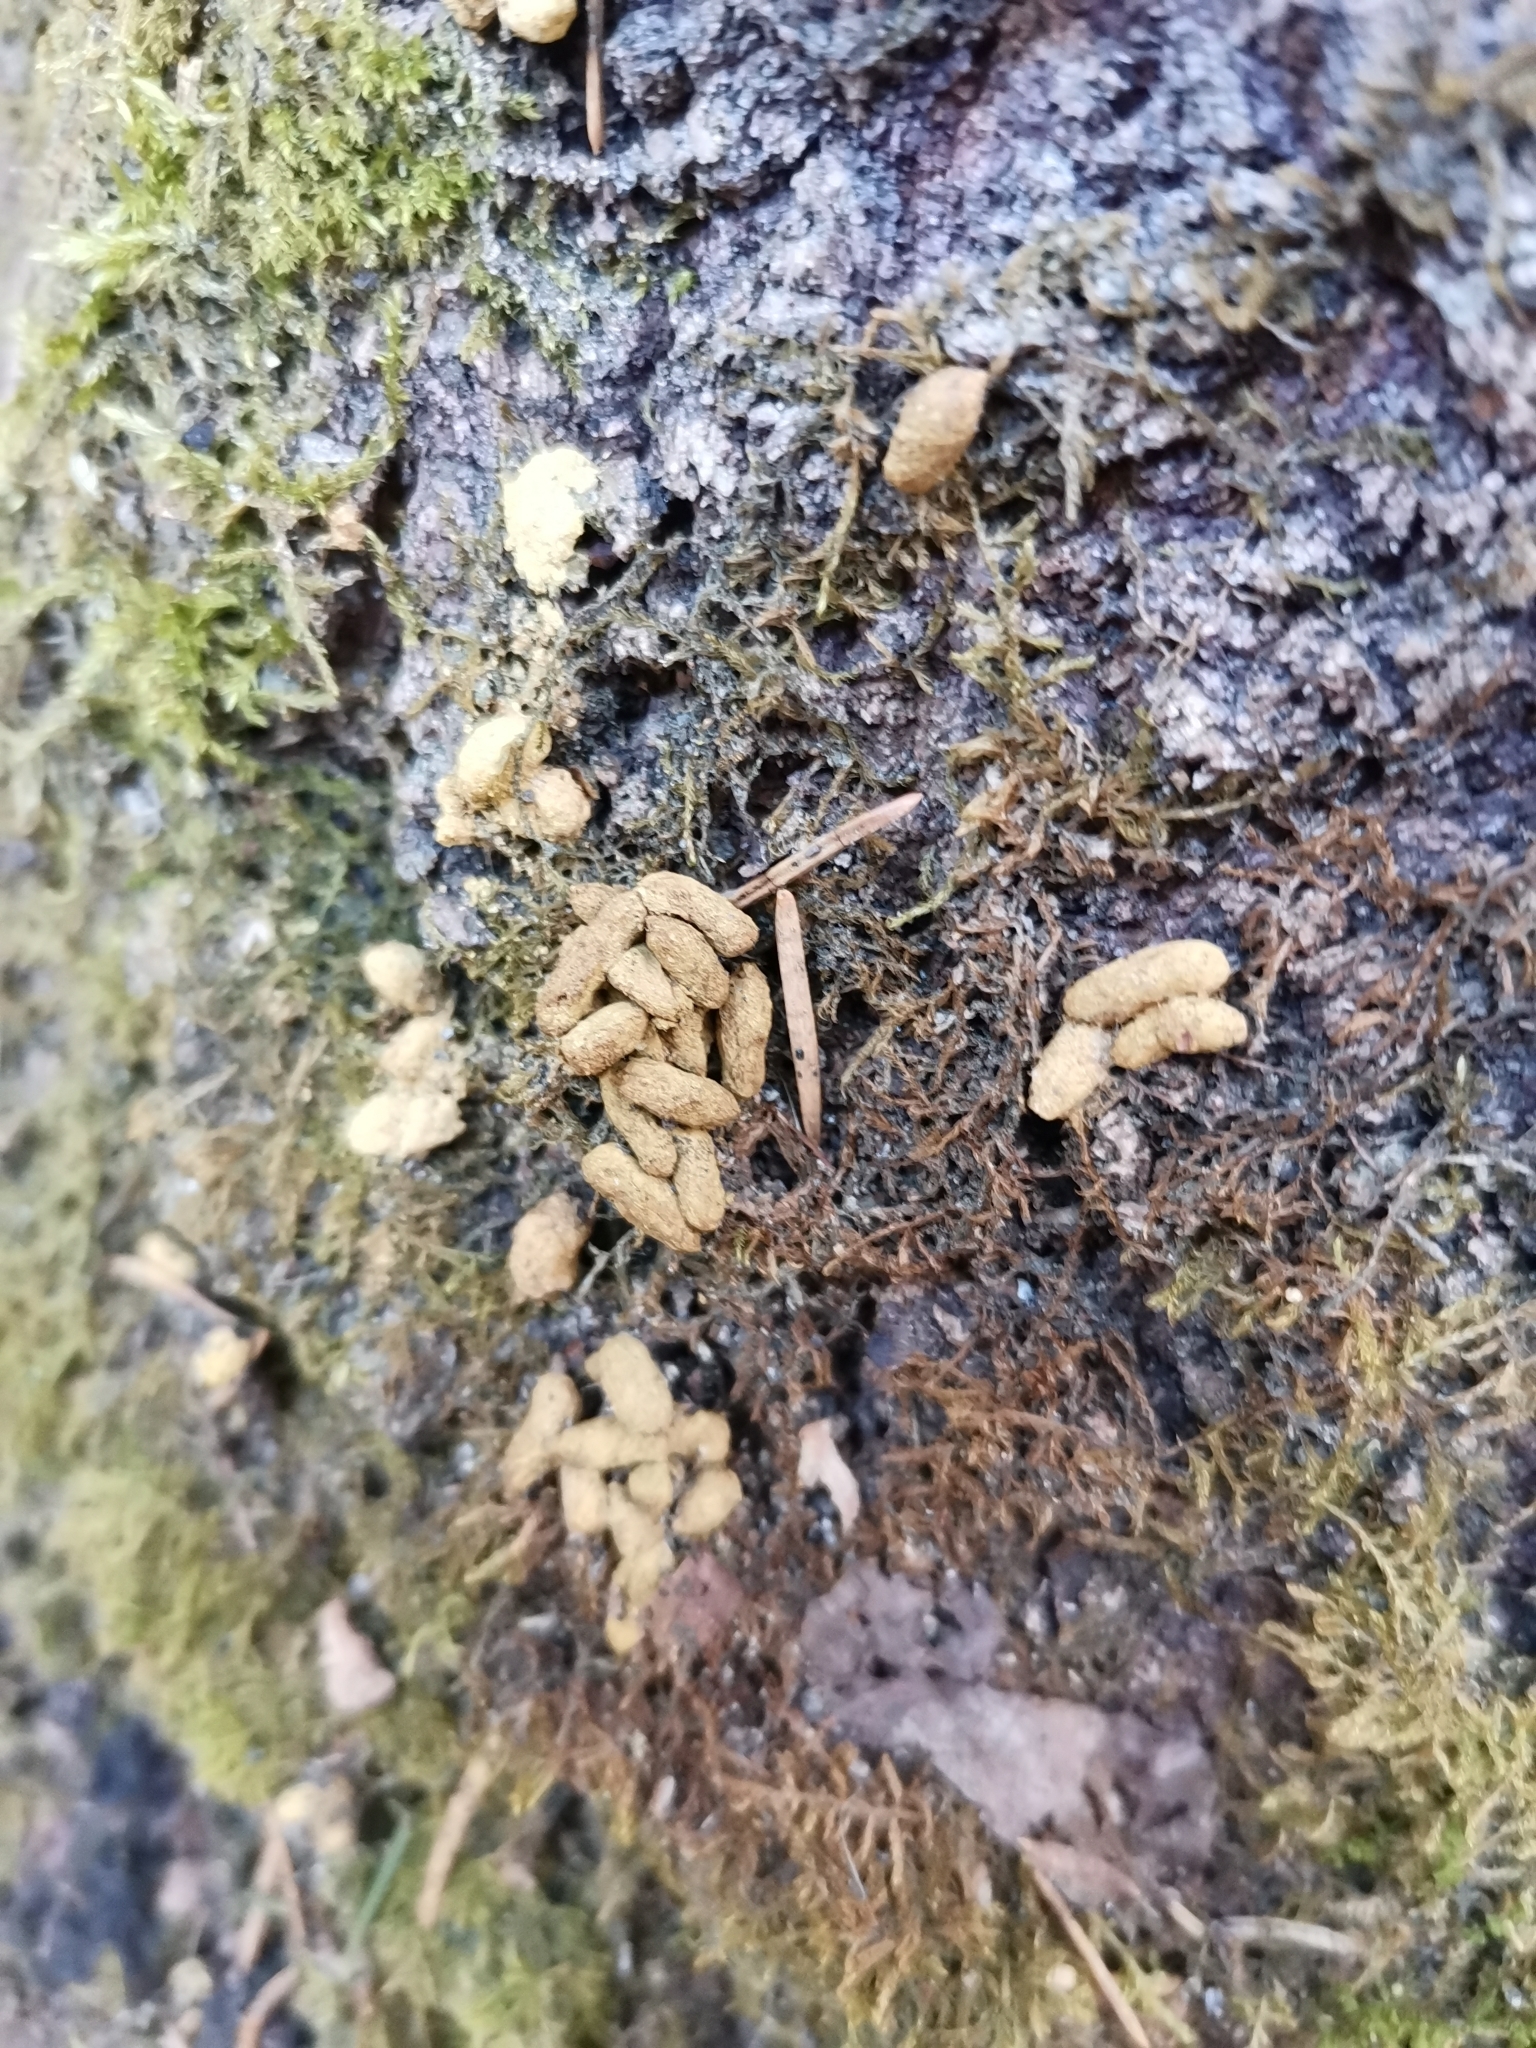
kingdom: Animalia
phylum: Chordata
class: Mammalia
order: Rodentia
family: Sciuridae
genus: Pteromys
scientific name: Pteromys volans
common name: Siberian flying squirrel
